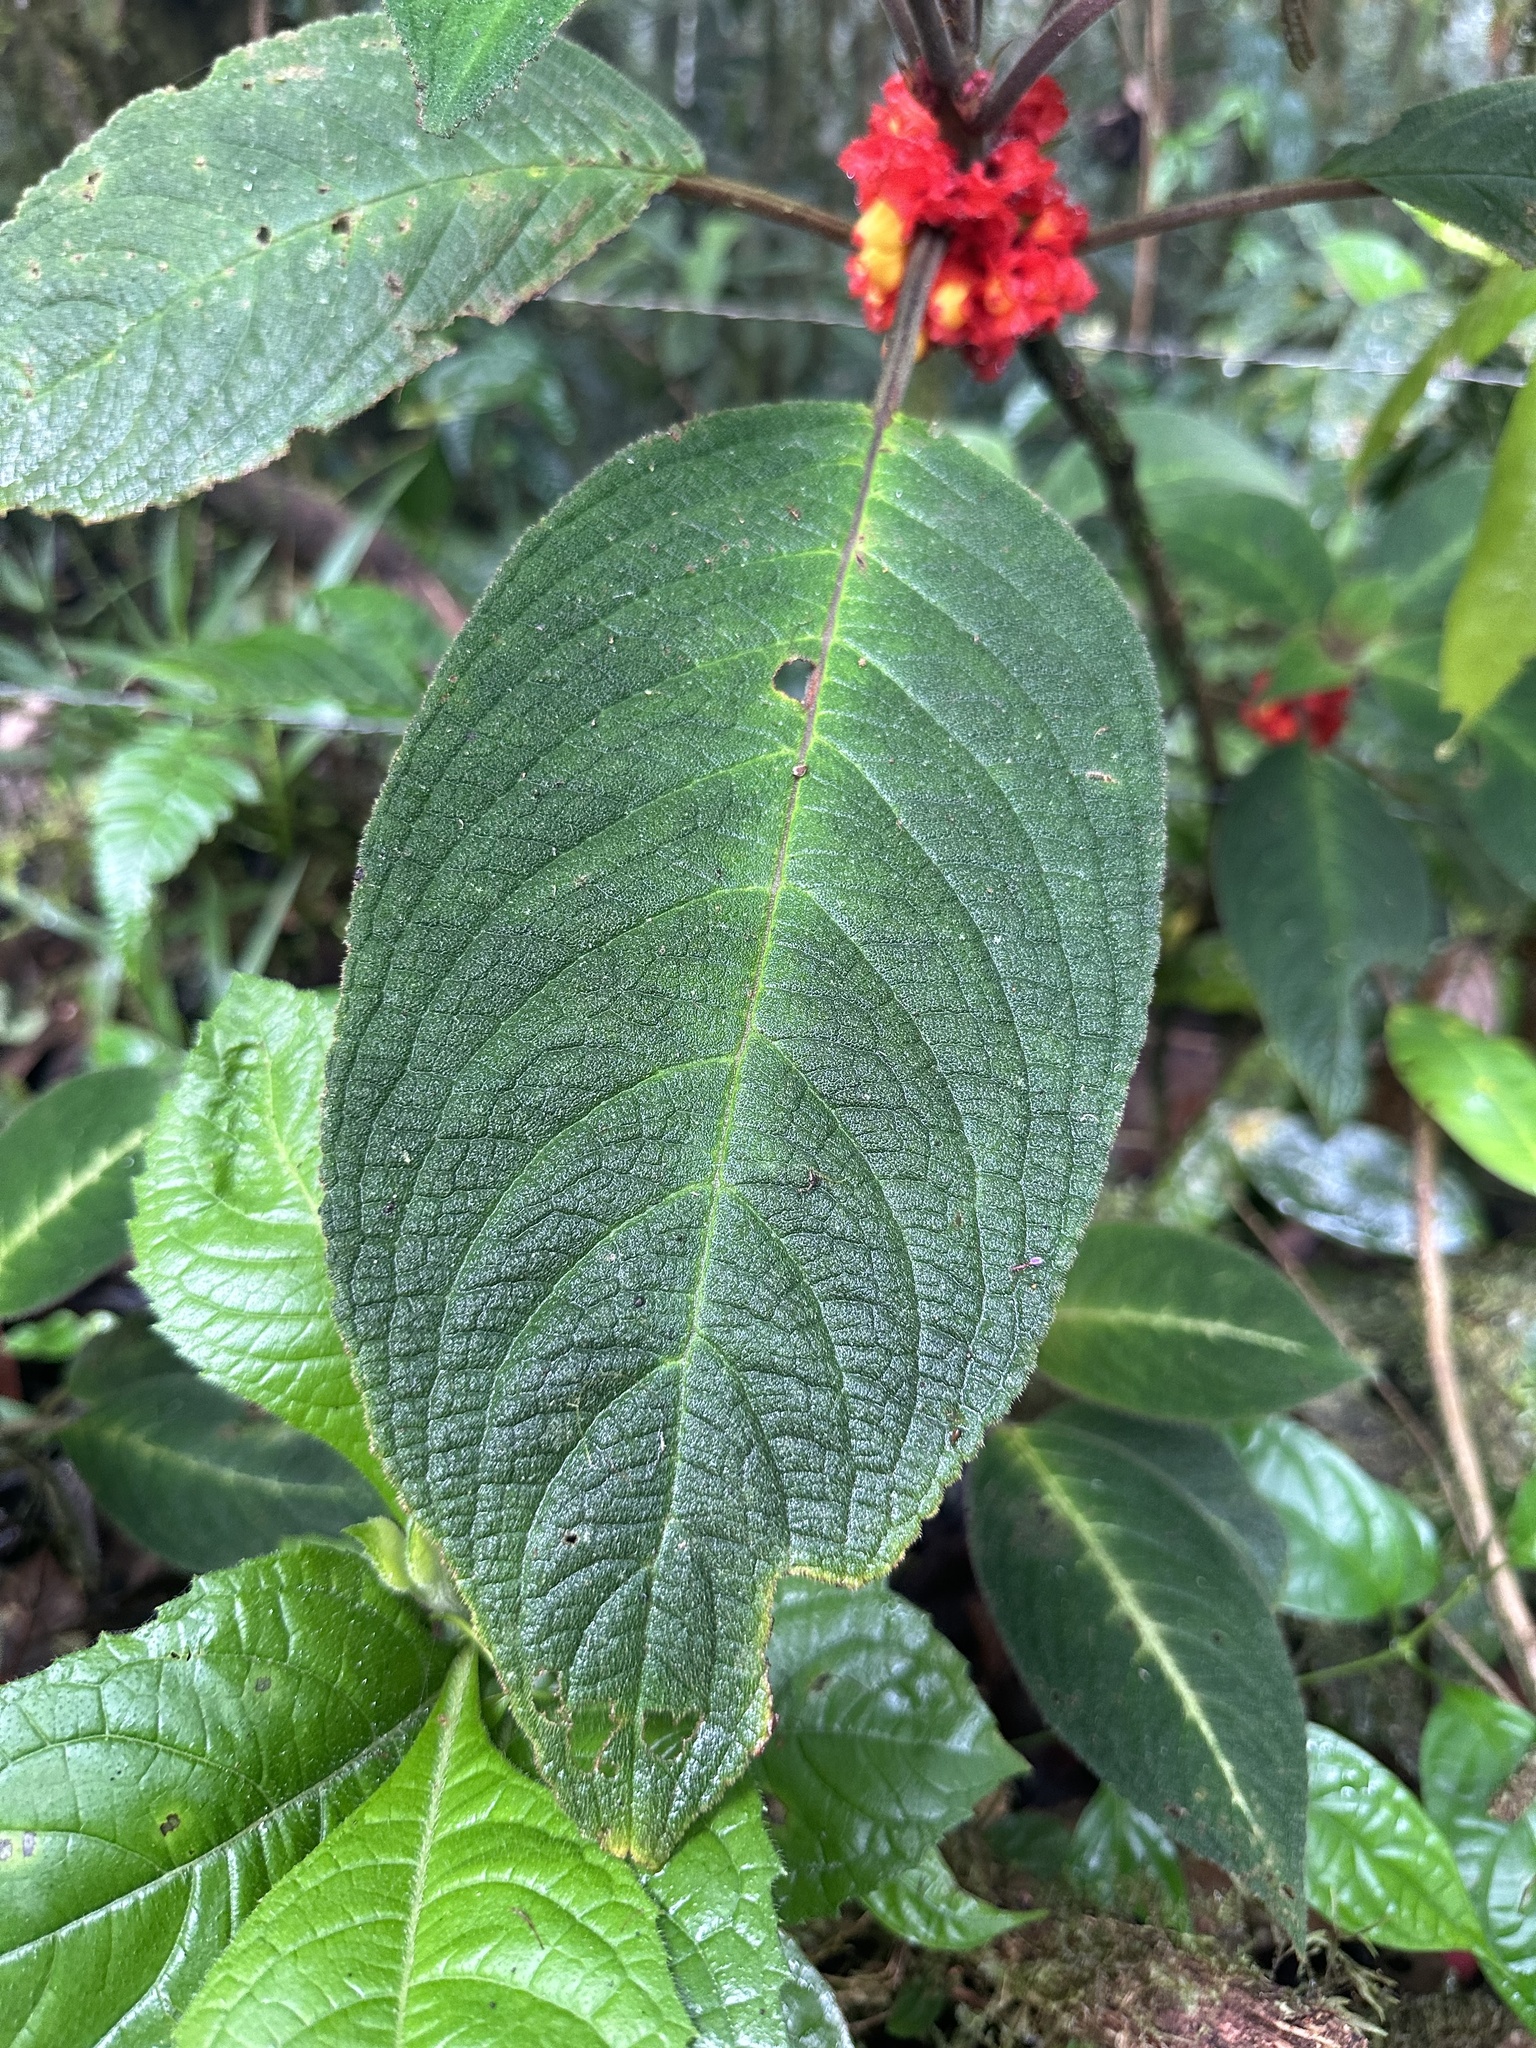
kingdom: Plantae
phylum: Tracheophyta
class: Magnoliopsida
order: Lamiales
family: Gesneriaceae
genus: Drymonia
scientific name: Drymonia teuscheri
